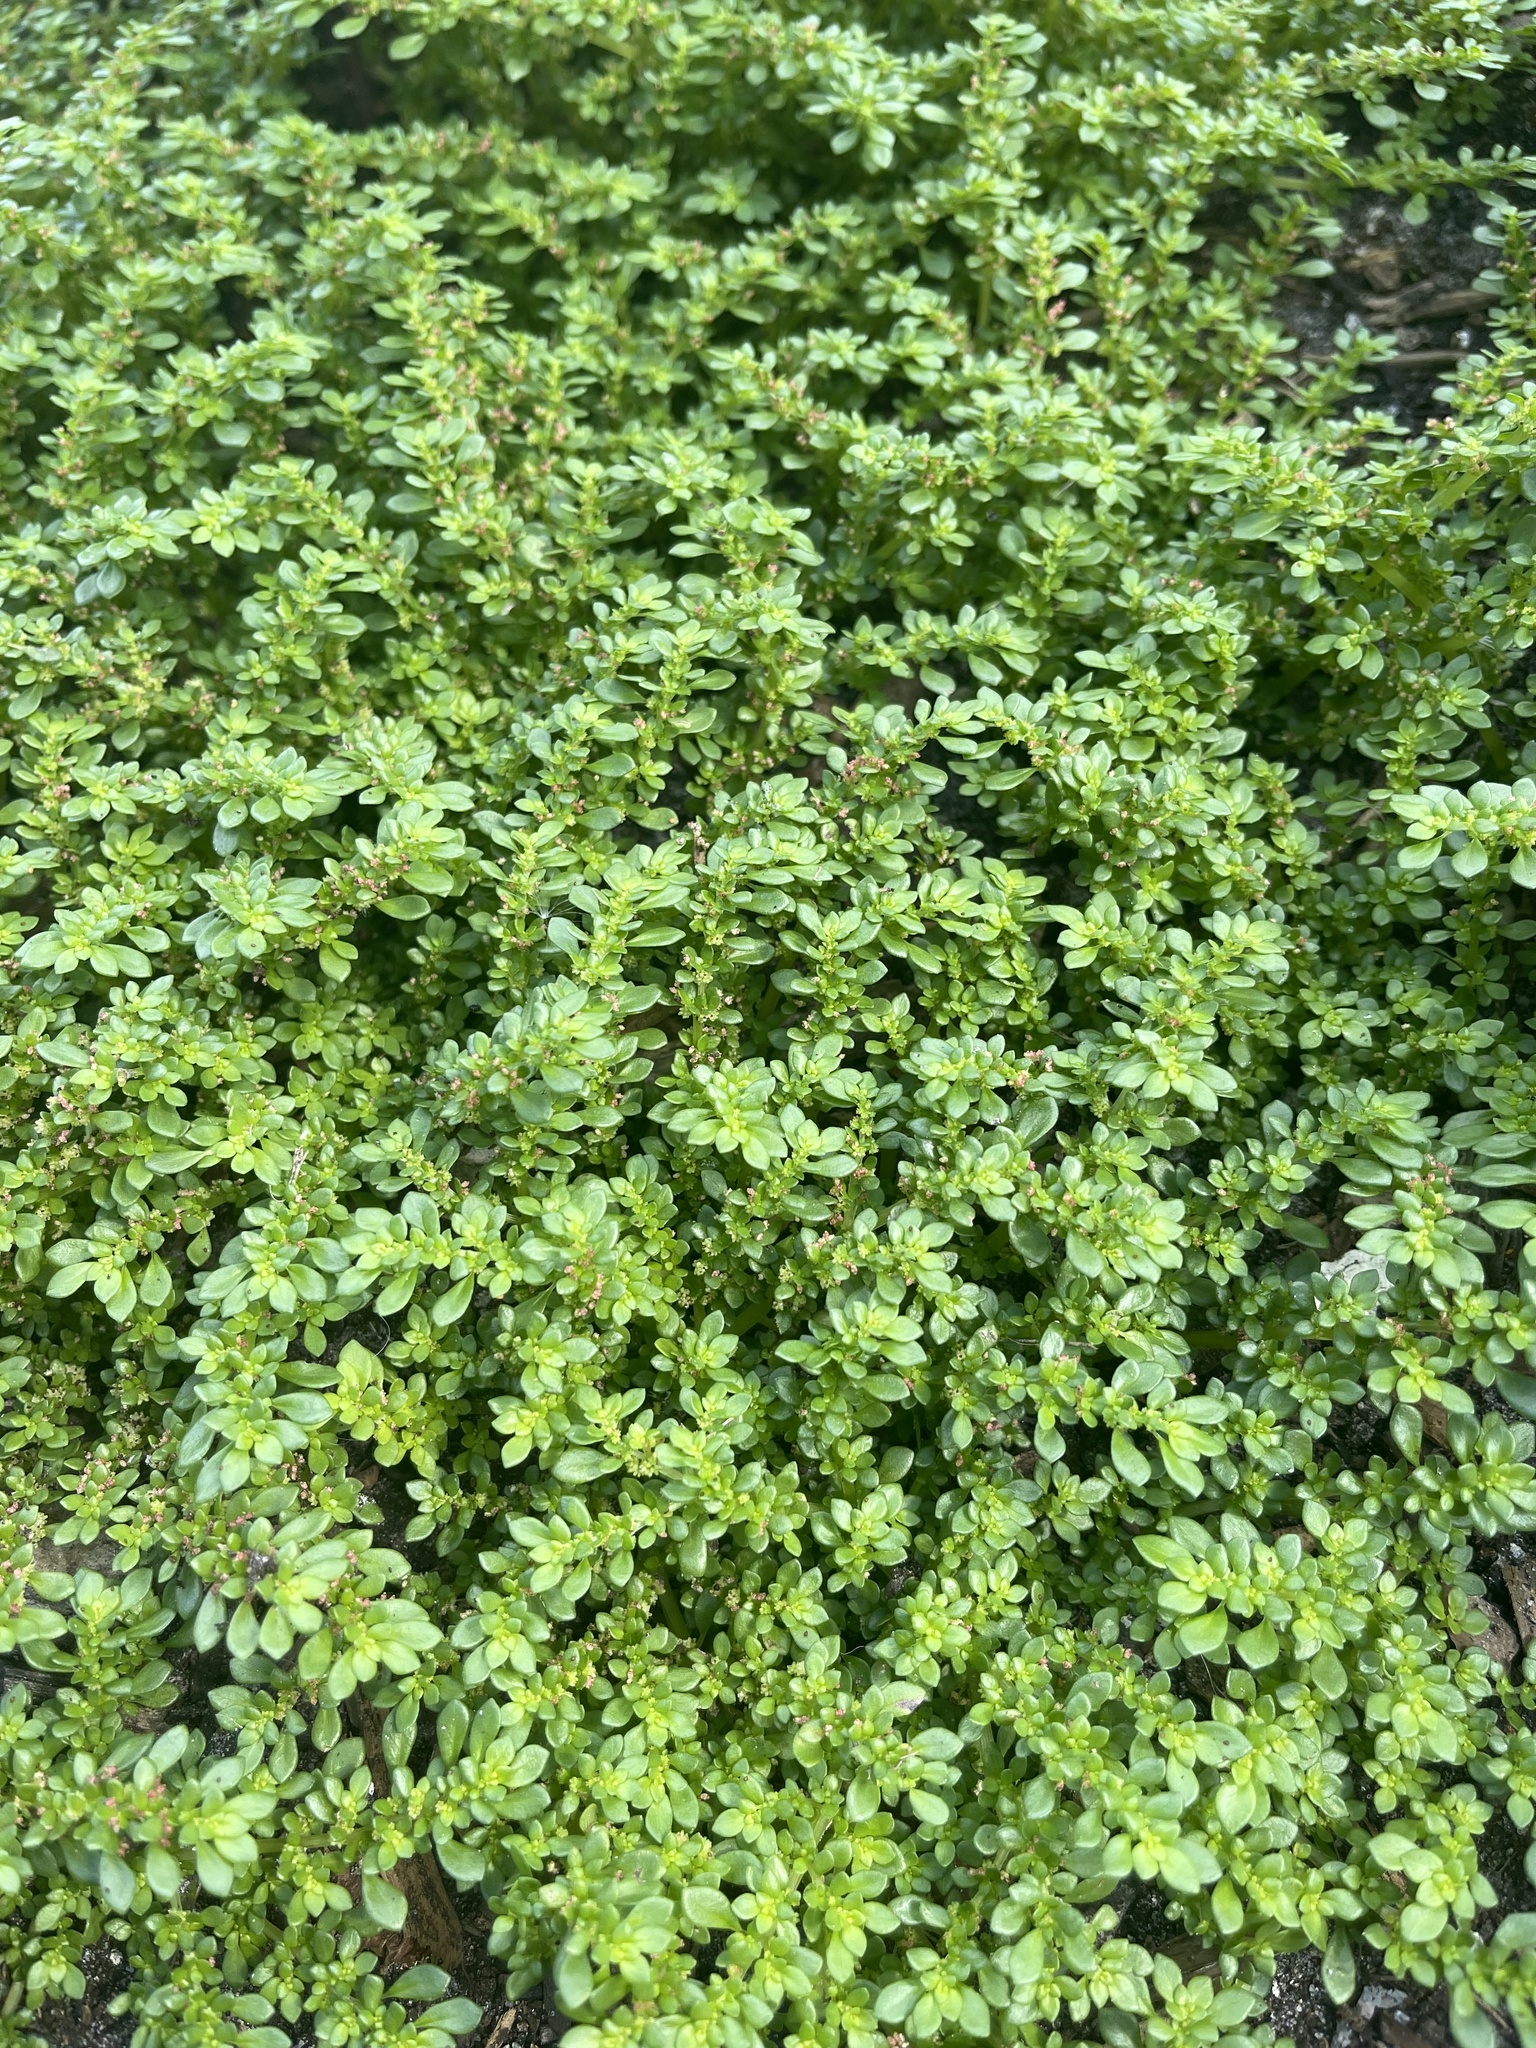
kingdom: Plantae
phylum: Tracheophyta
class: Magnoliopsida
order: Rosales
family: Urticaceae
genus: Pilea
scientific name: Pilea microphylla
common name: Artillery-plant
